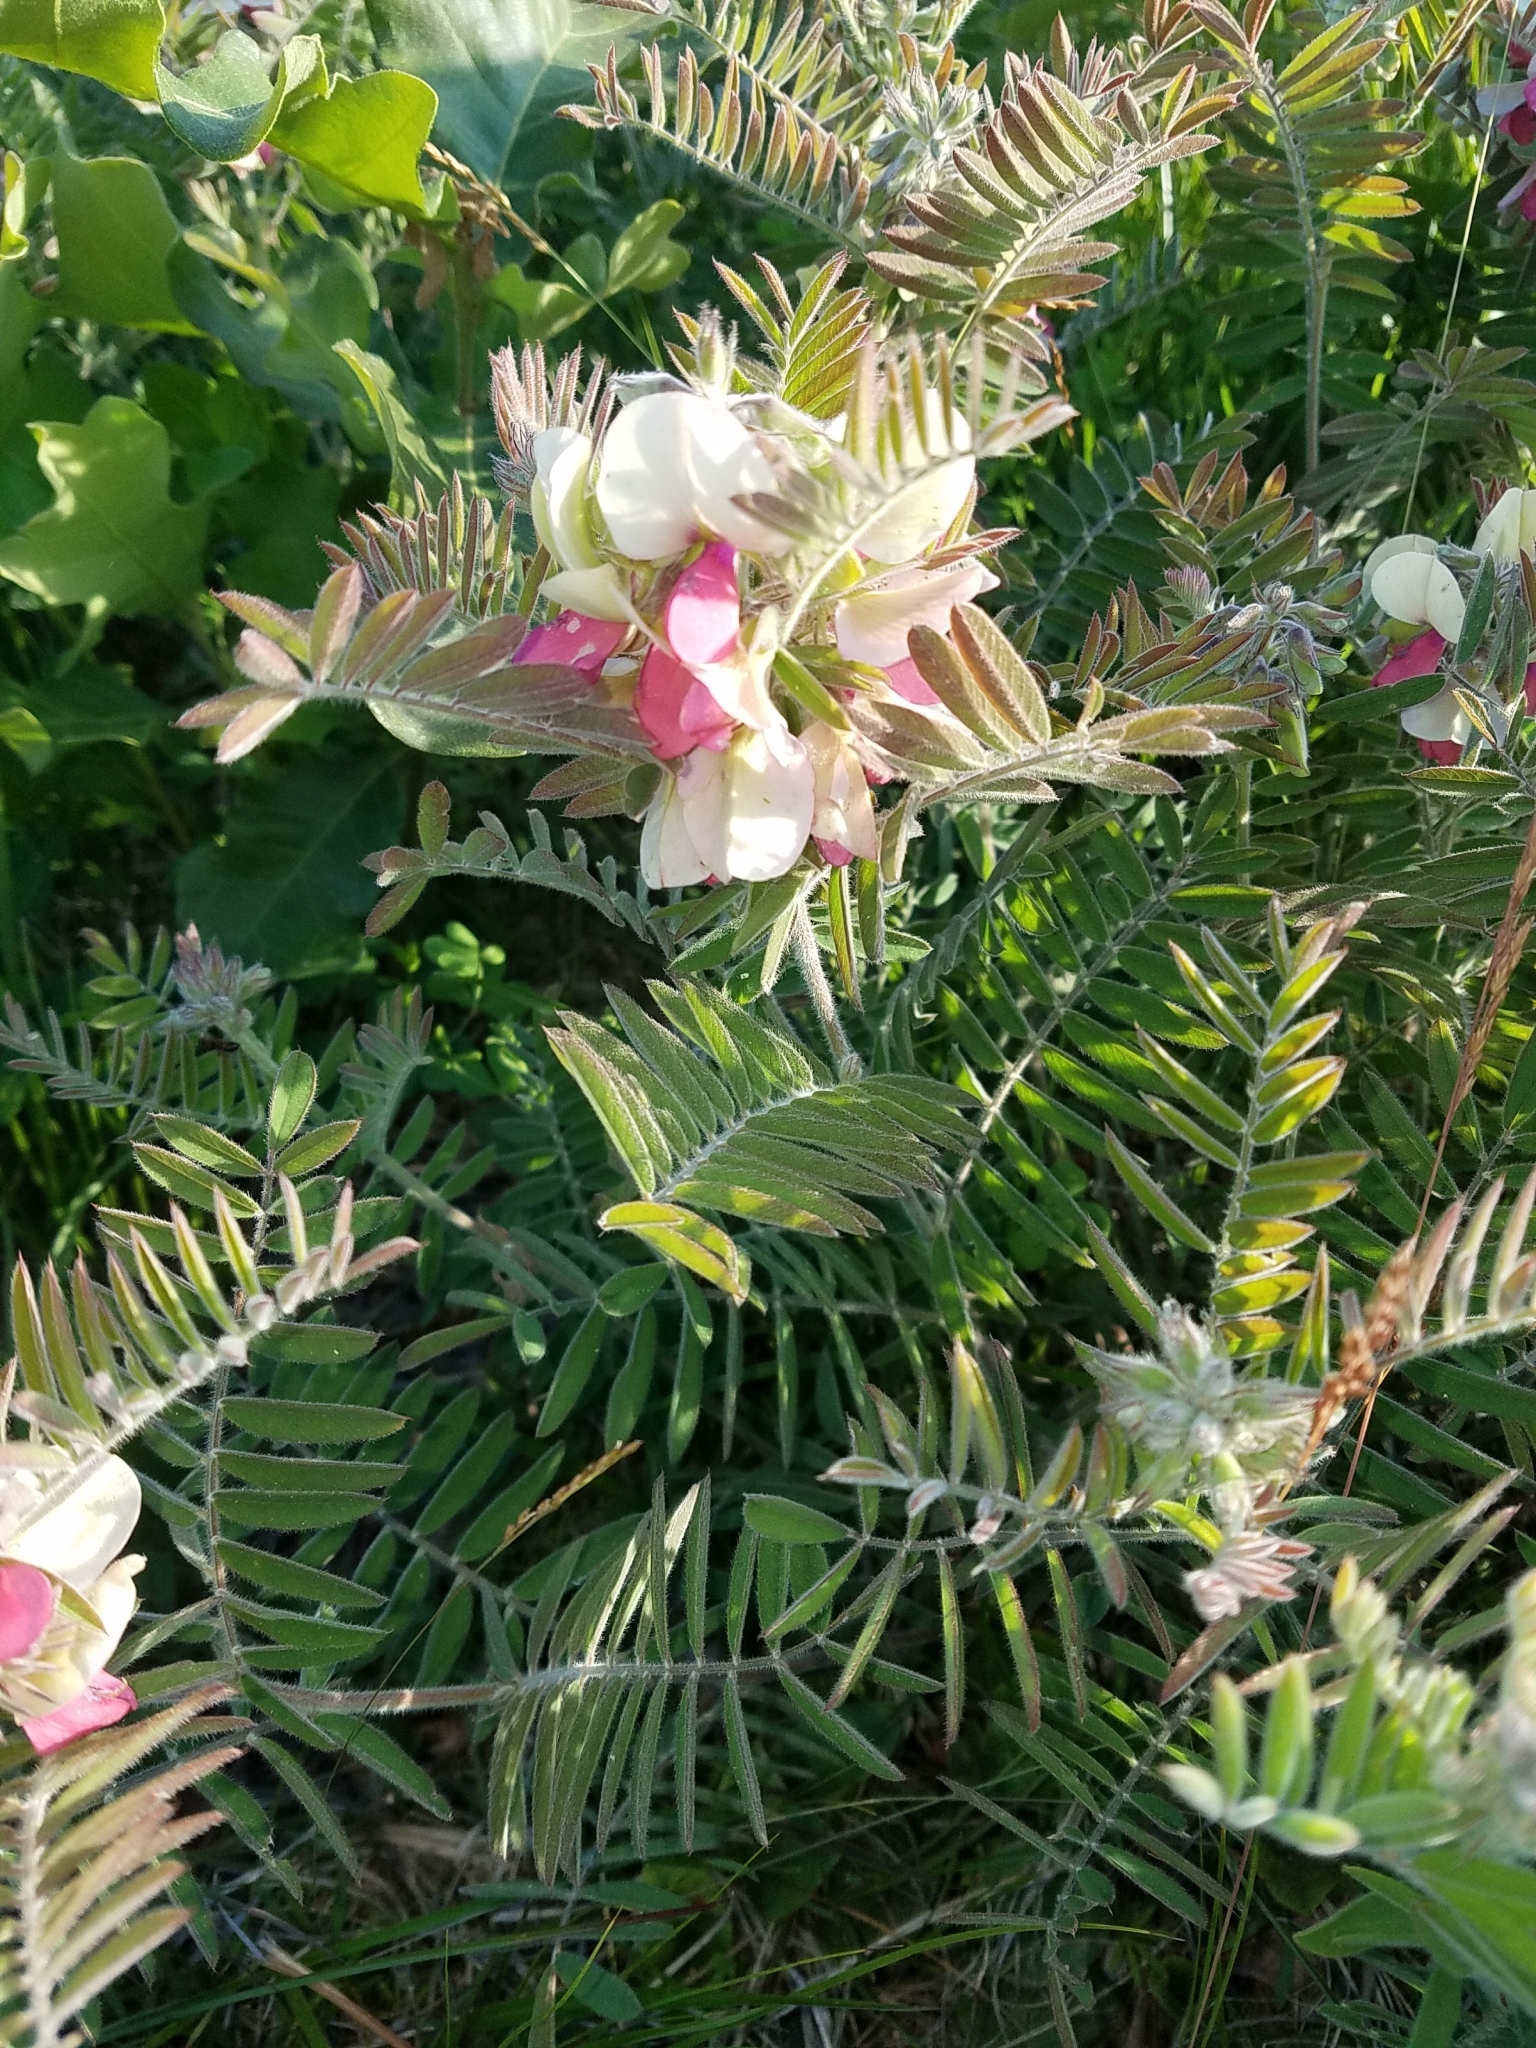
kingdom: Plantae
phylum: Tracheophyta
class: Magnoliopsida
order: Fabales
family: Fabaceae
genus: Tephrosia
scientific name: Tephrosia virginiana
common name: Rabbit-pea
